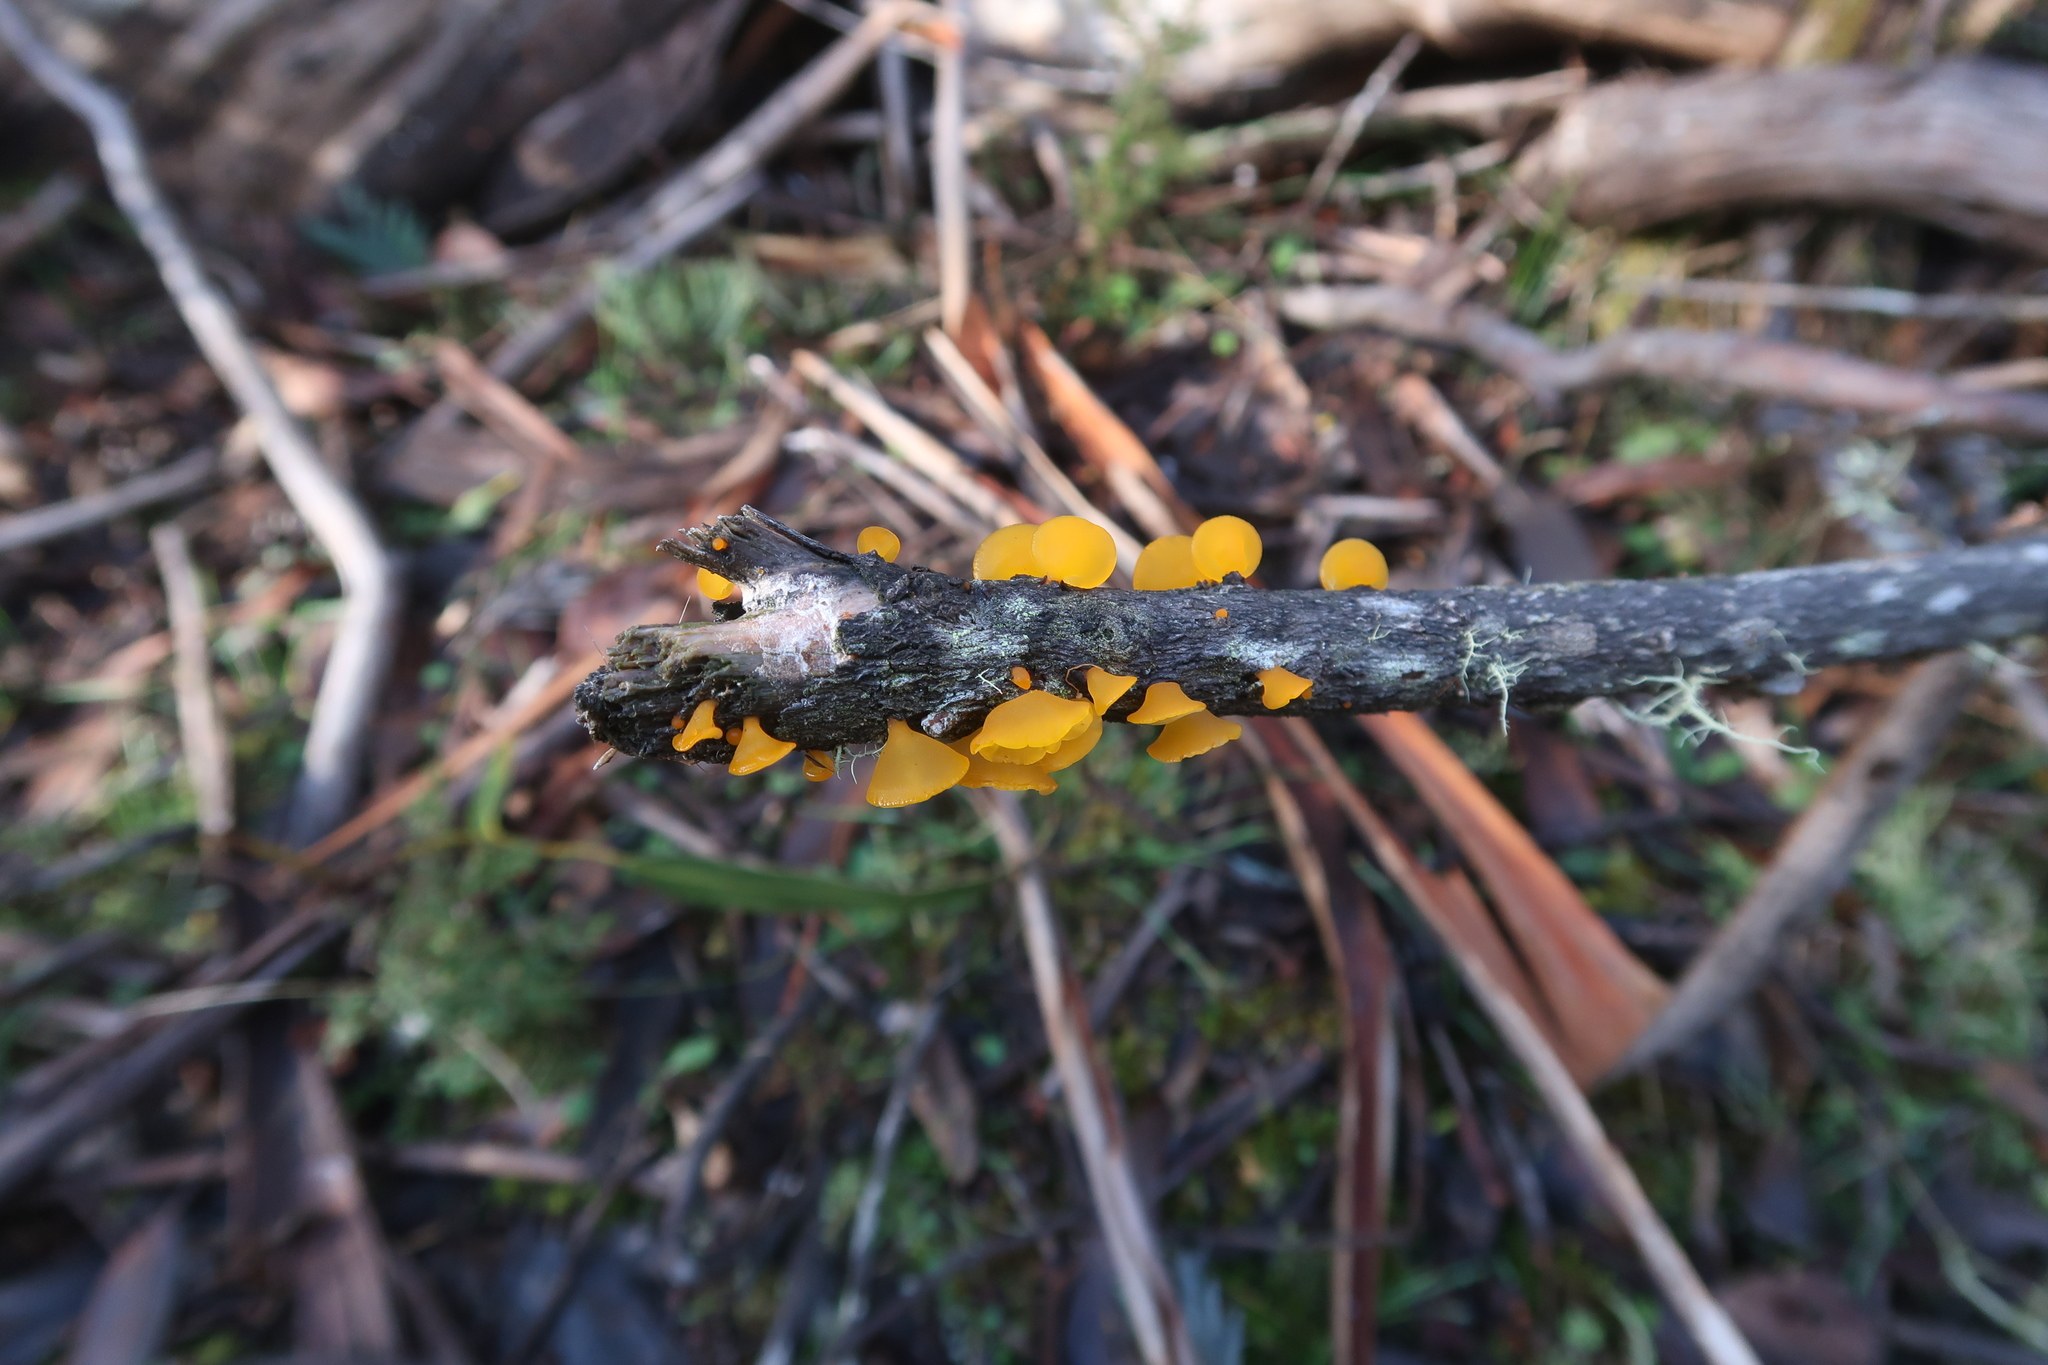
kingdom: Fungi
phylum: Basidiomycota
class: Dacrymycetes
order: Dacrymycetales
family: Dacrymycetaceae
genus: Heterotextus
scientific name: Heterotextus peziziformis
